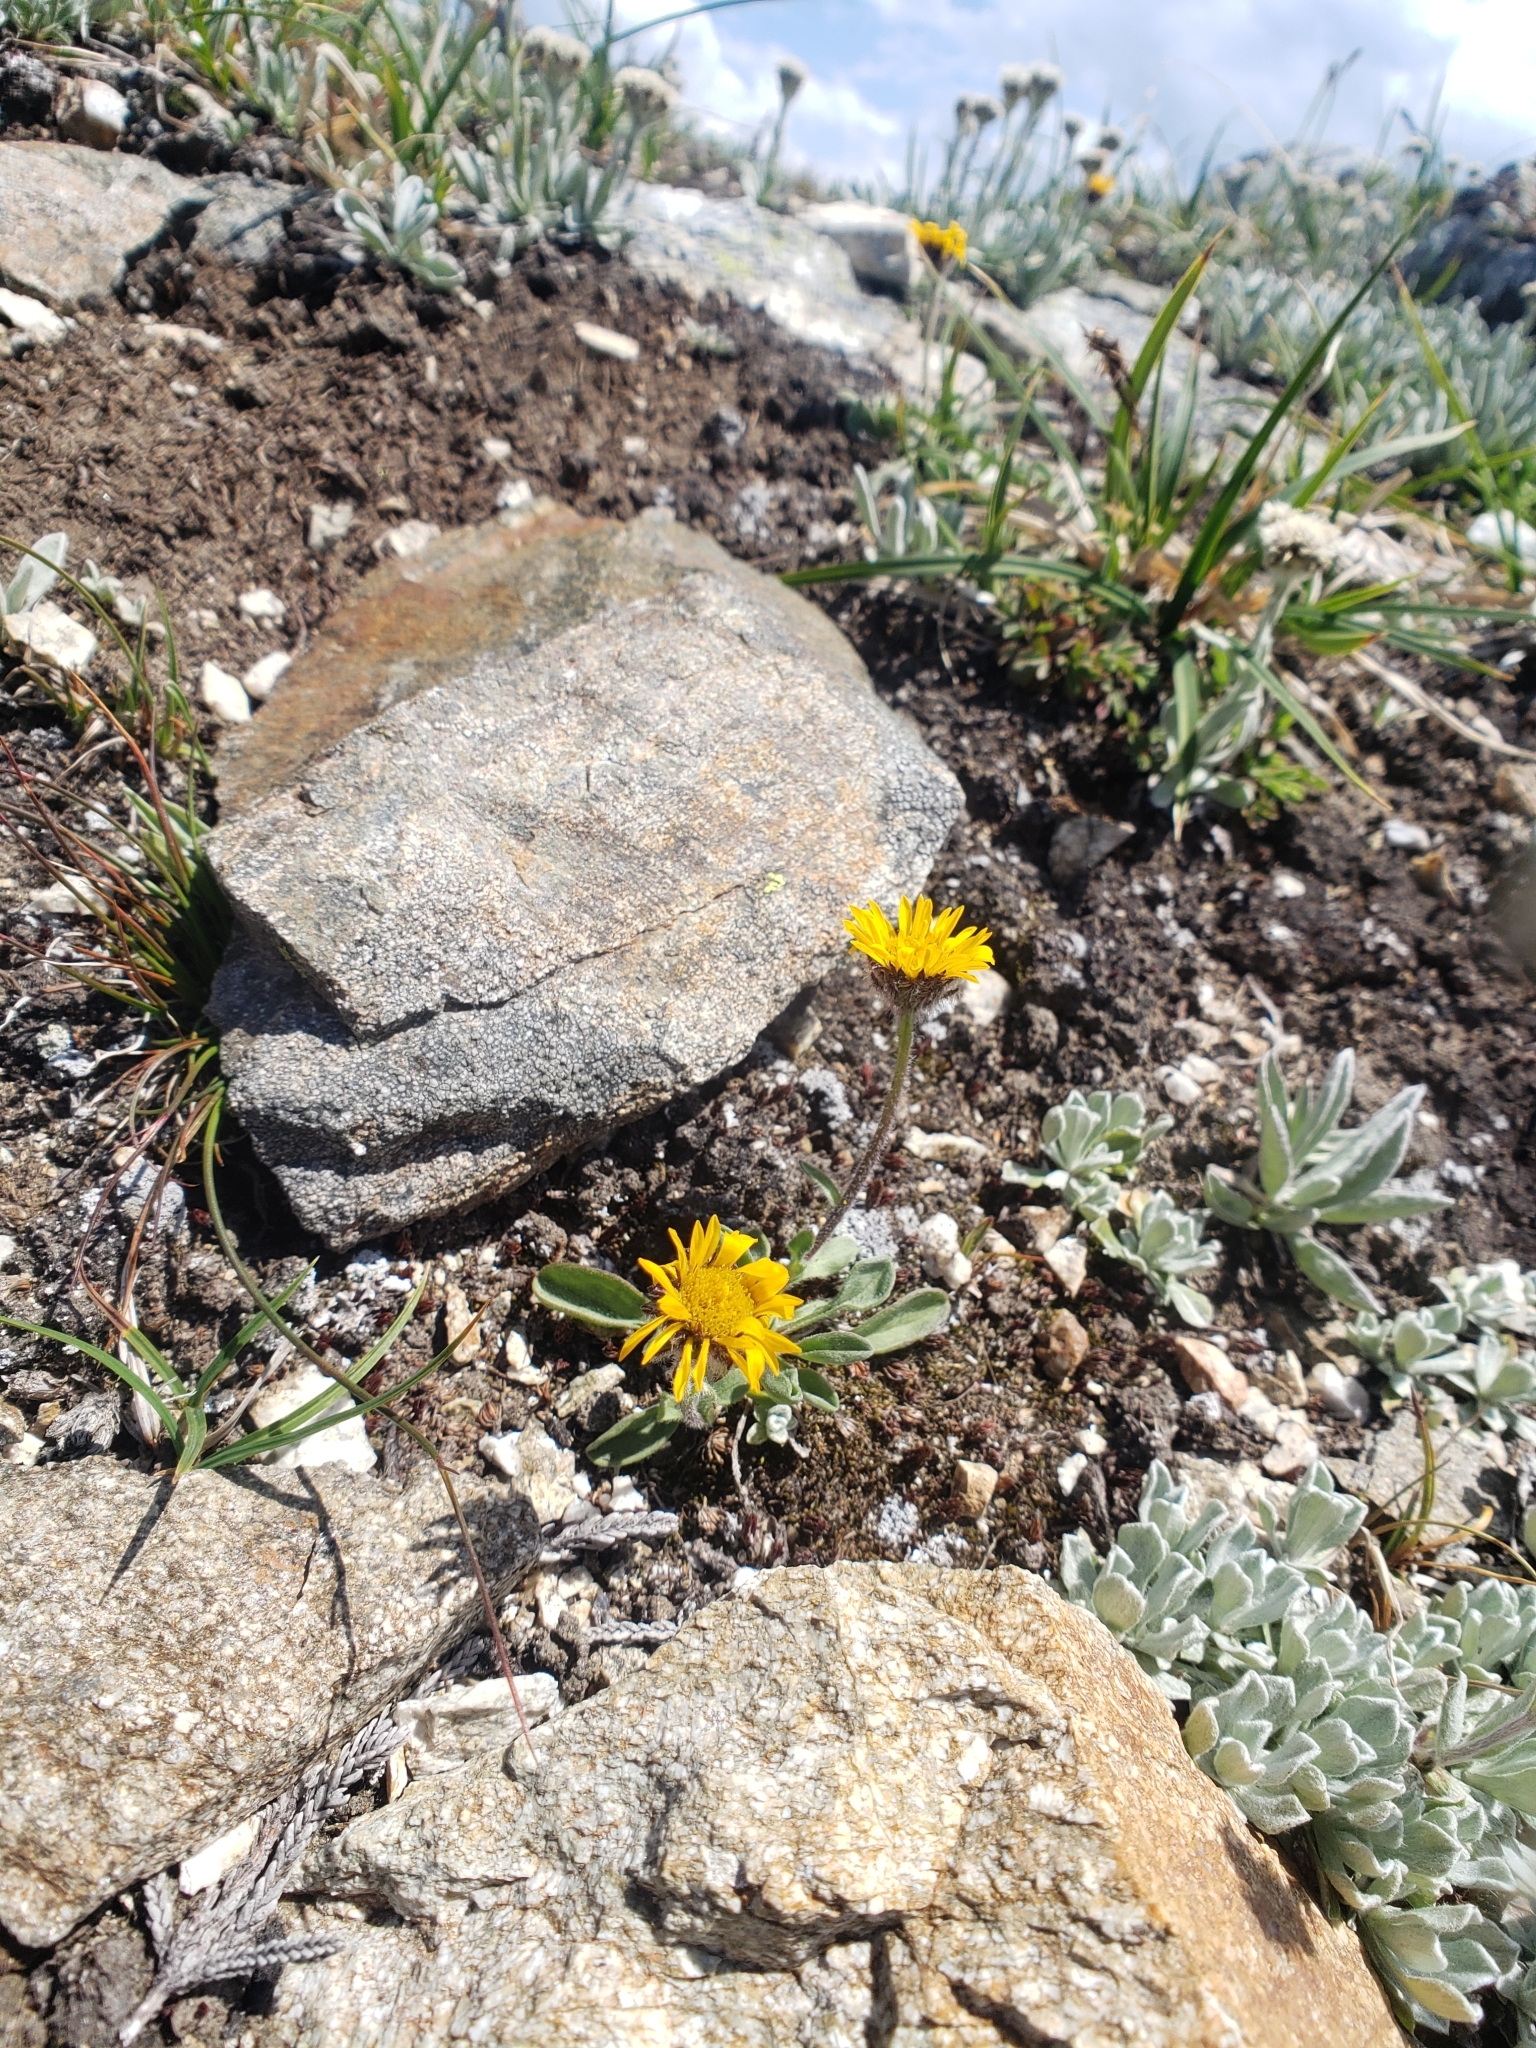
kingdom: Plantae
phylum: Tracheophyta
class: Magnoliopsida
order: Asterales
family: Asteraceae
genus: Erigeron
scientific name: Erigeron aureus
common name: Alpine yellow fleabane
